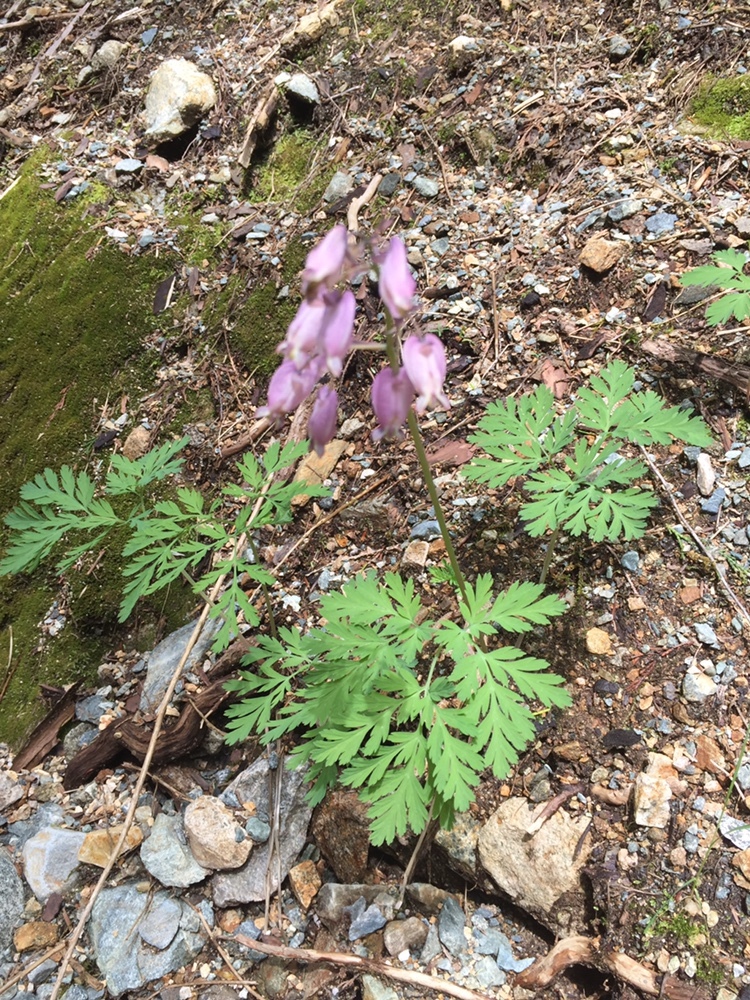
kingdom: Plantae
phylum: Tracheophyta
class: Magnoliopsida
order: Ranunculales
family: Papaveraceae
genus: Dicentra
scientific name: Dicentra formosa
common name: Bleeding-heart
